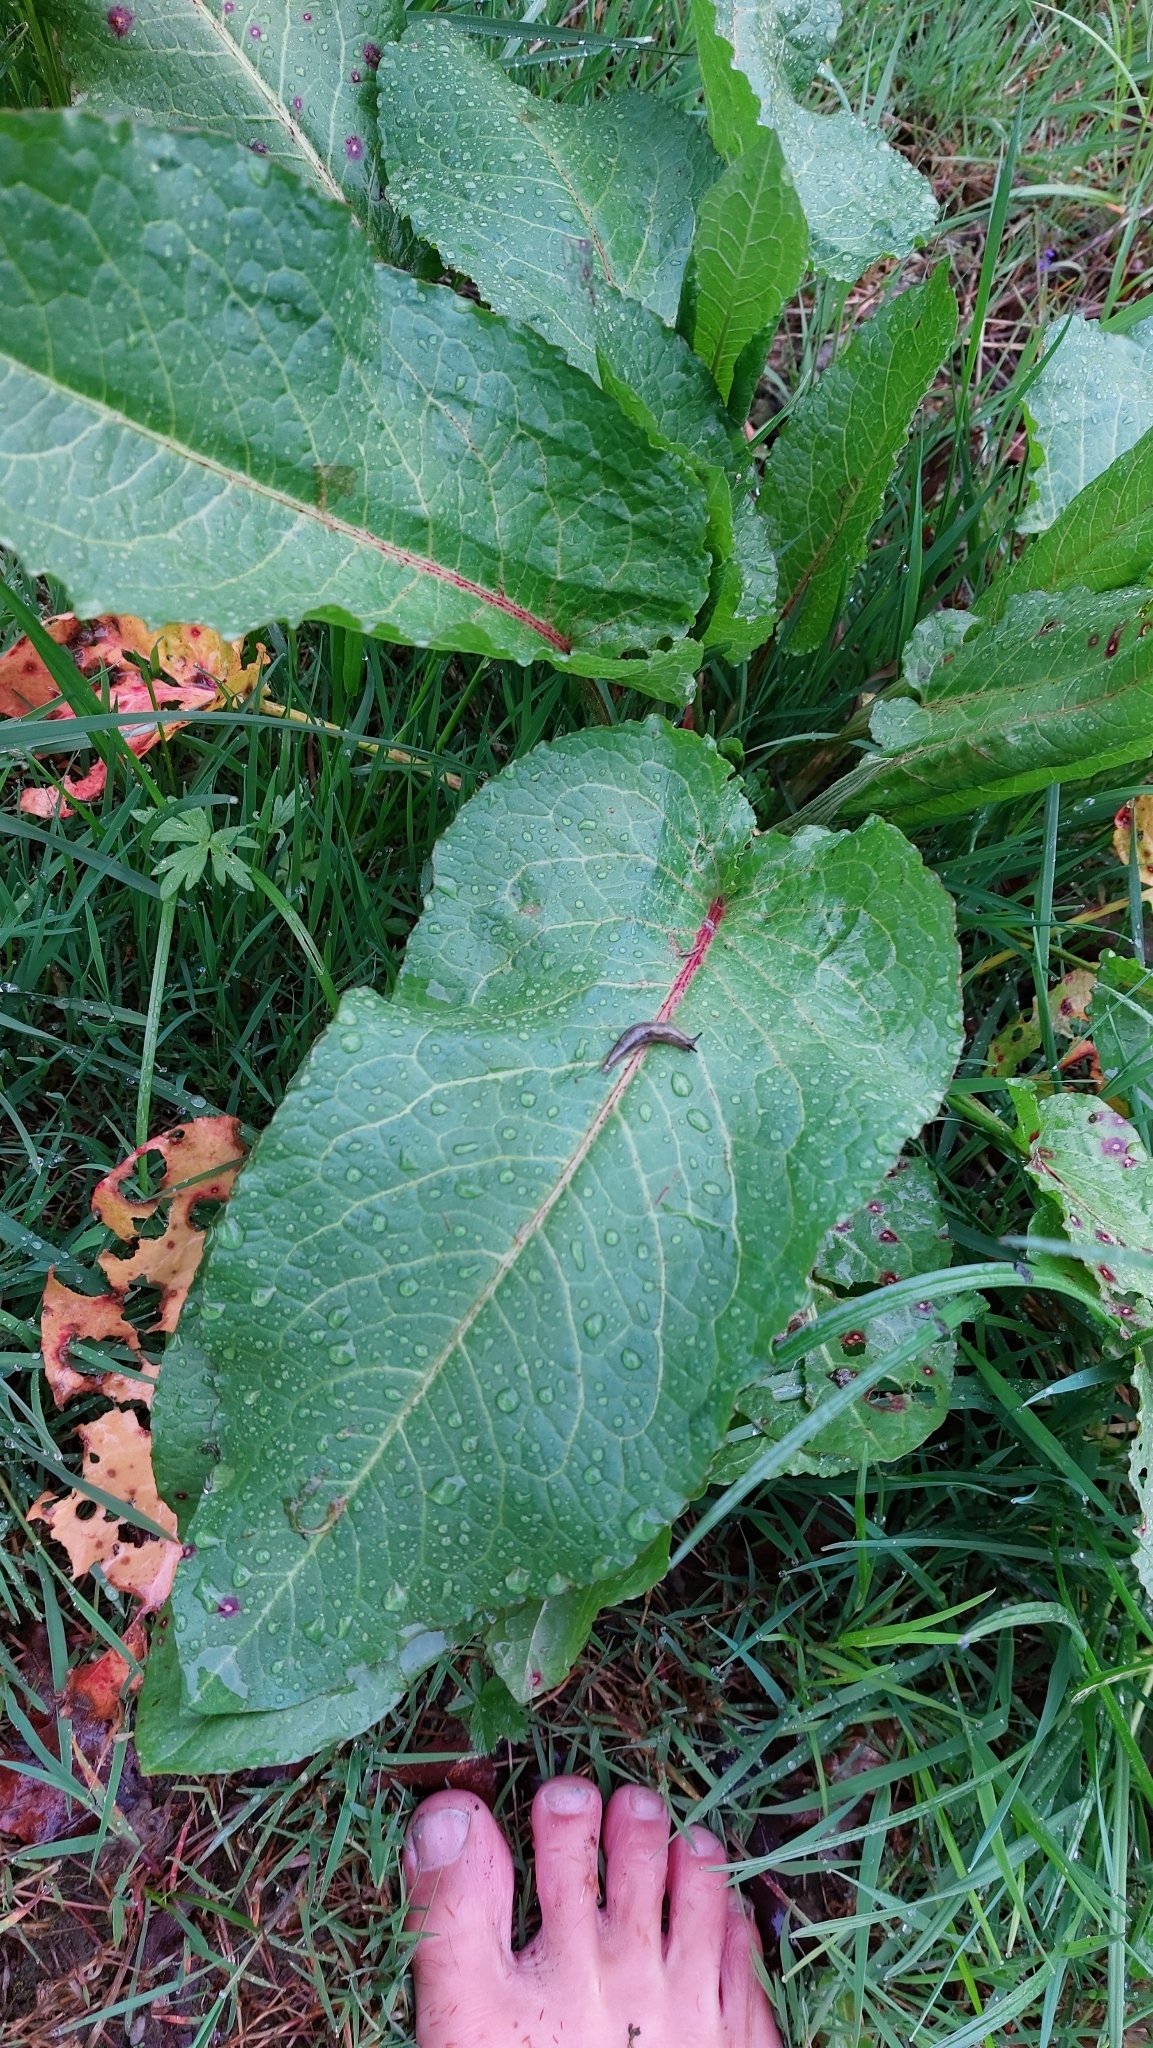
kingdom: Plantae
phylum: Tracheophyta
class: Magnoliopsida
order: Caryophyllales
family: Polygonaceae
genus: Rumex
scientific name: Rumex obtusifolius
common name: Bitter dock
